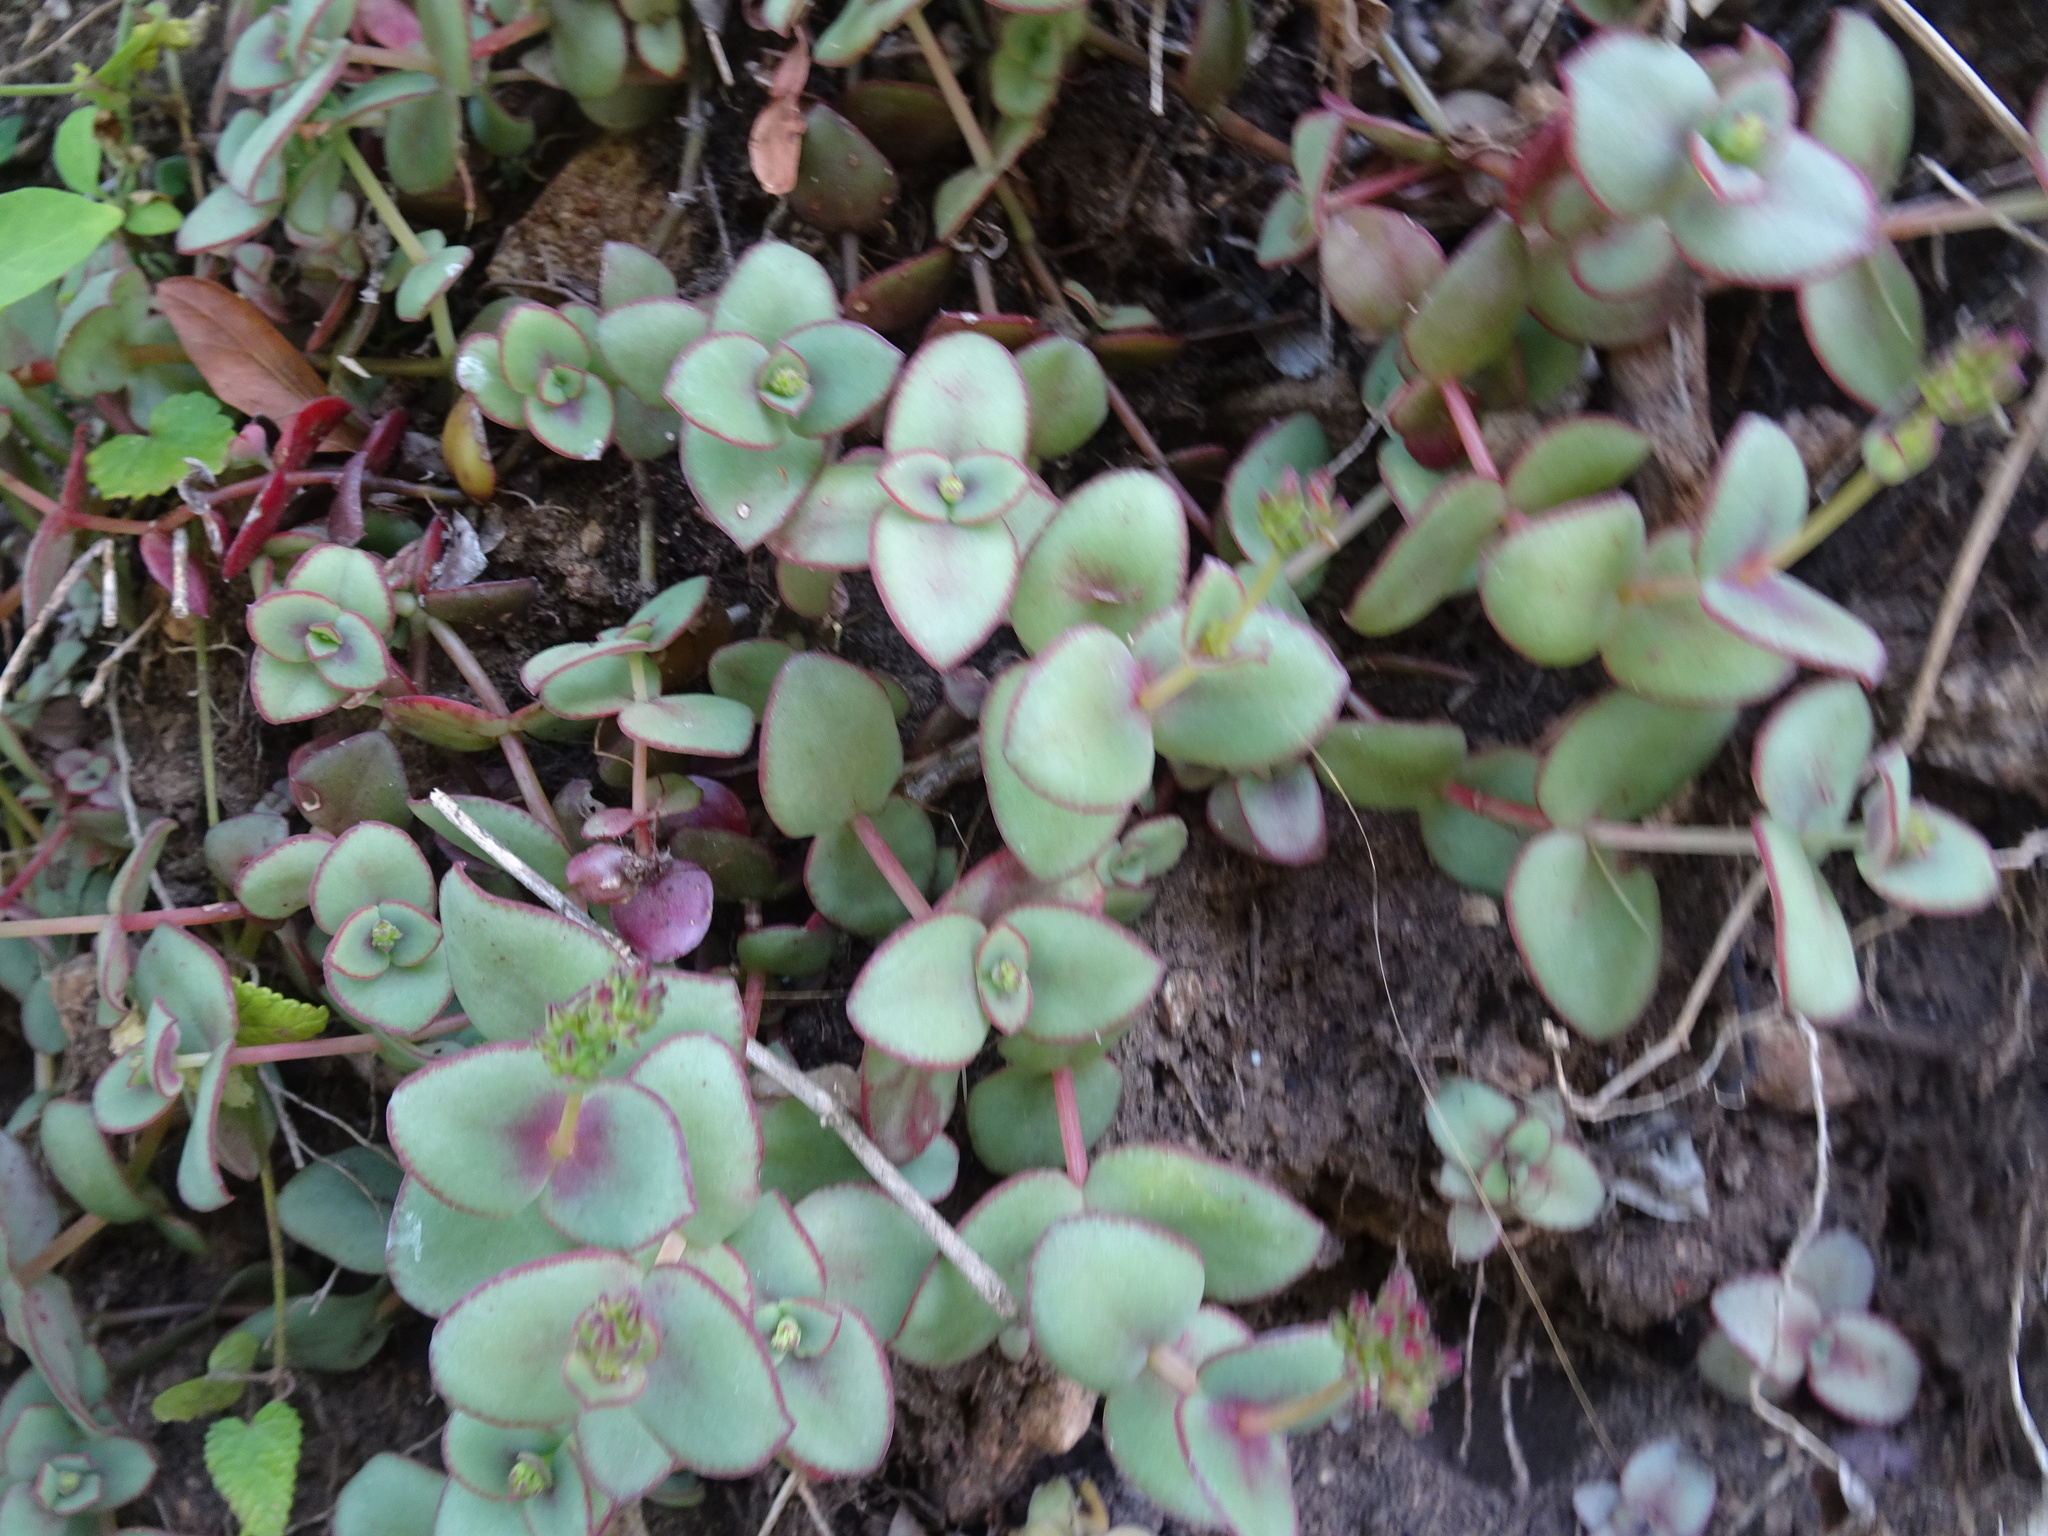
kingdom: Plantae
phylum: Tracheophyta
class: Magnoliopsida
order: Saxifragales
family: Crassulaceae
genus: Crassula
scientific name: Crassula pellucida
